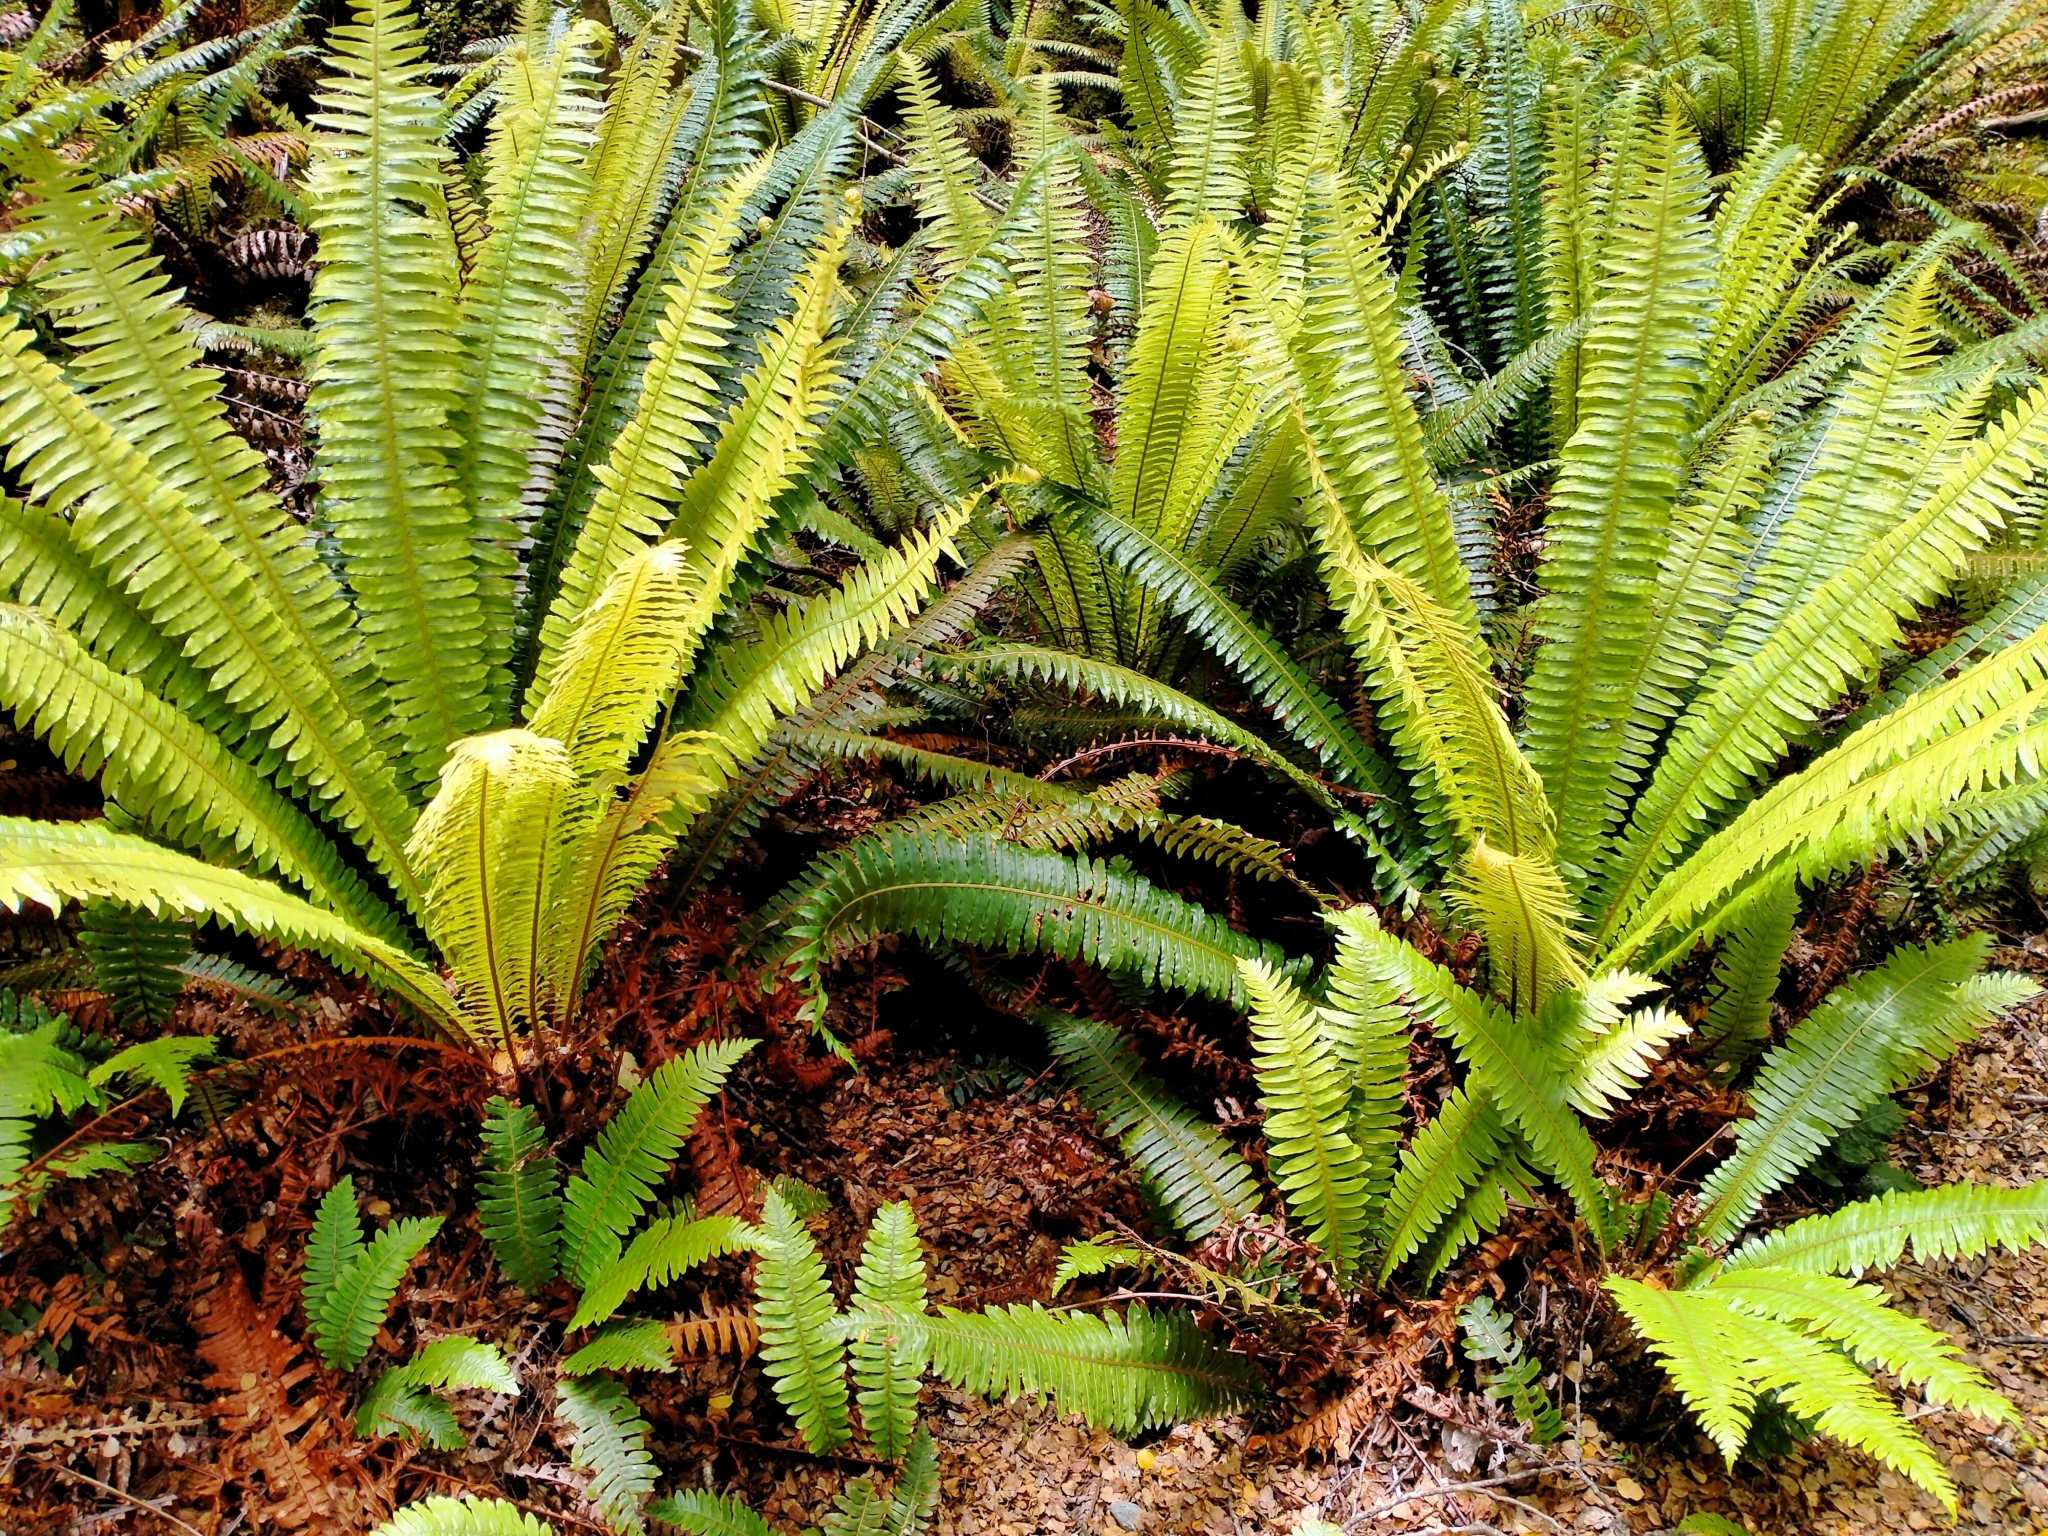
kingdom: Plantae
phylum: Tracheophyta
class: Polypodiopsida
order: Polypodiales
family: Blechnaceae
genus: Lomaria
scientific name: Lomaria discolor
